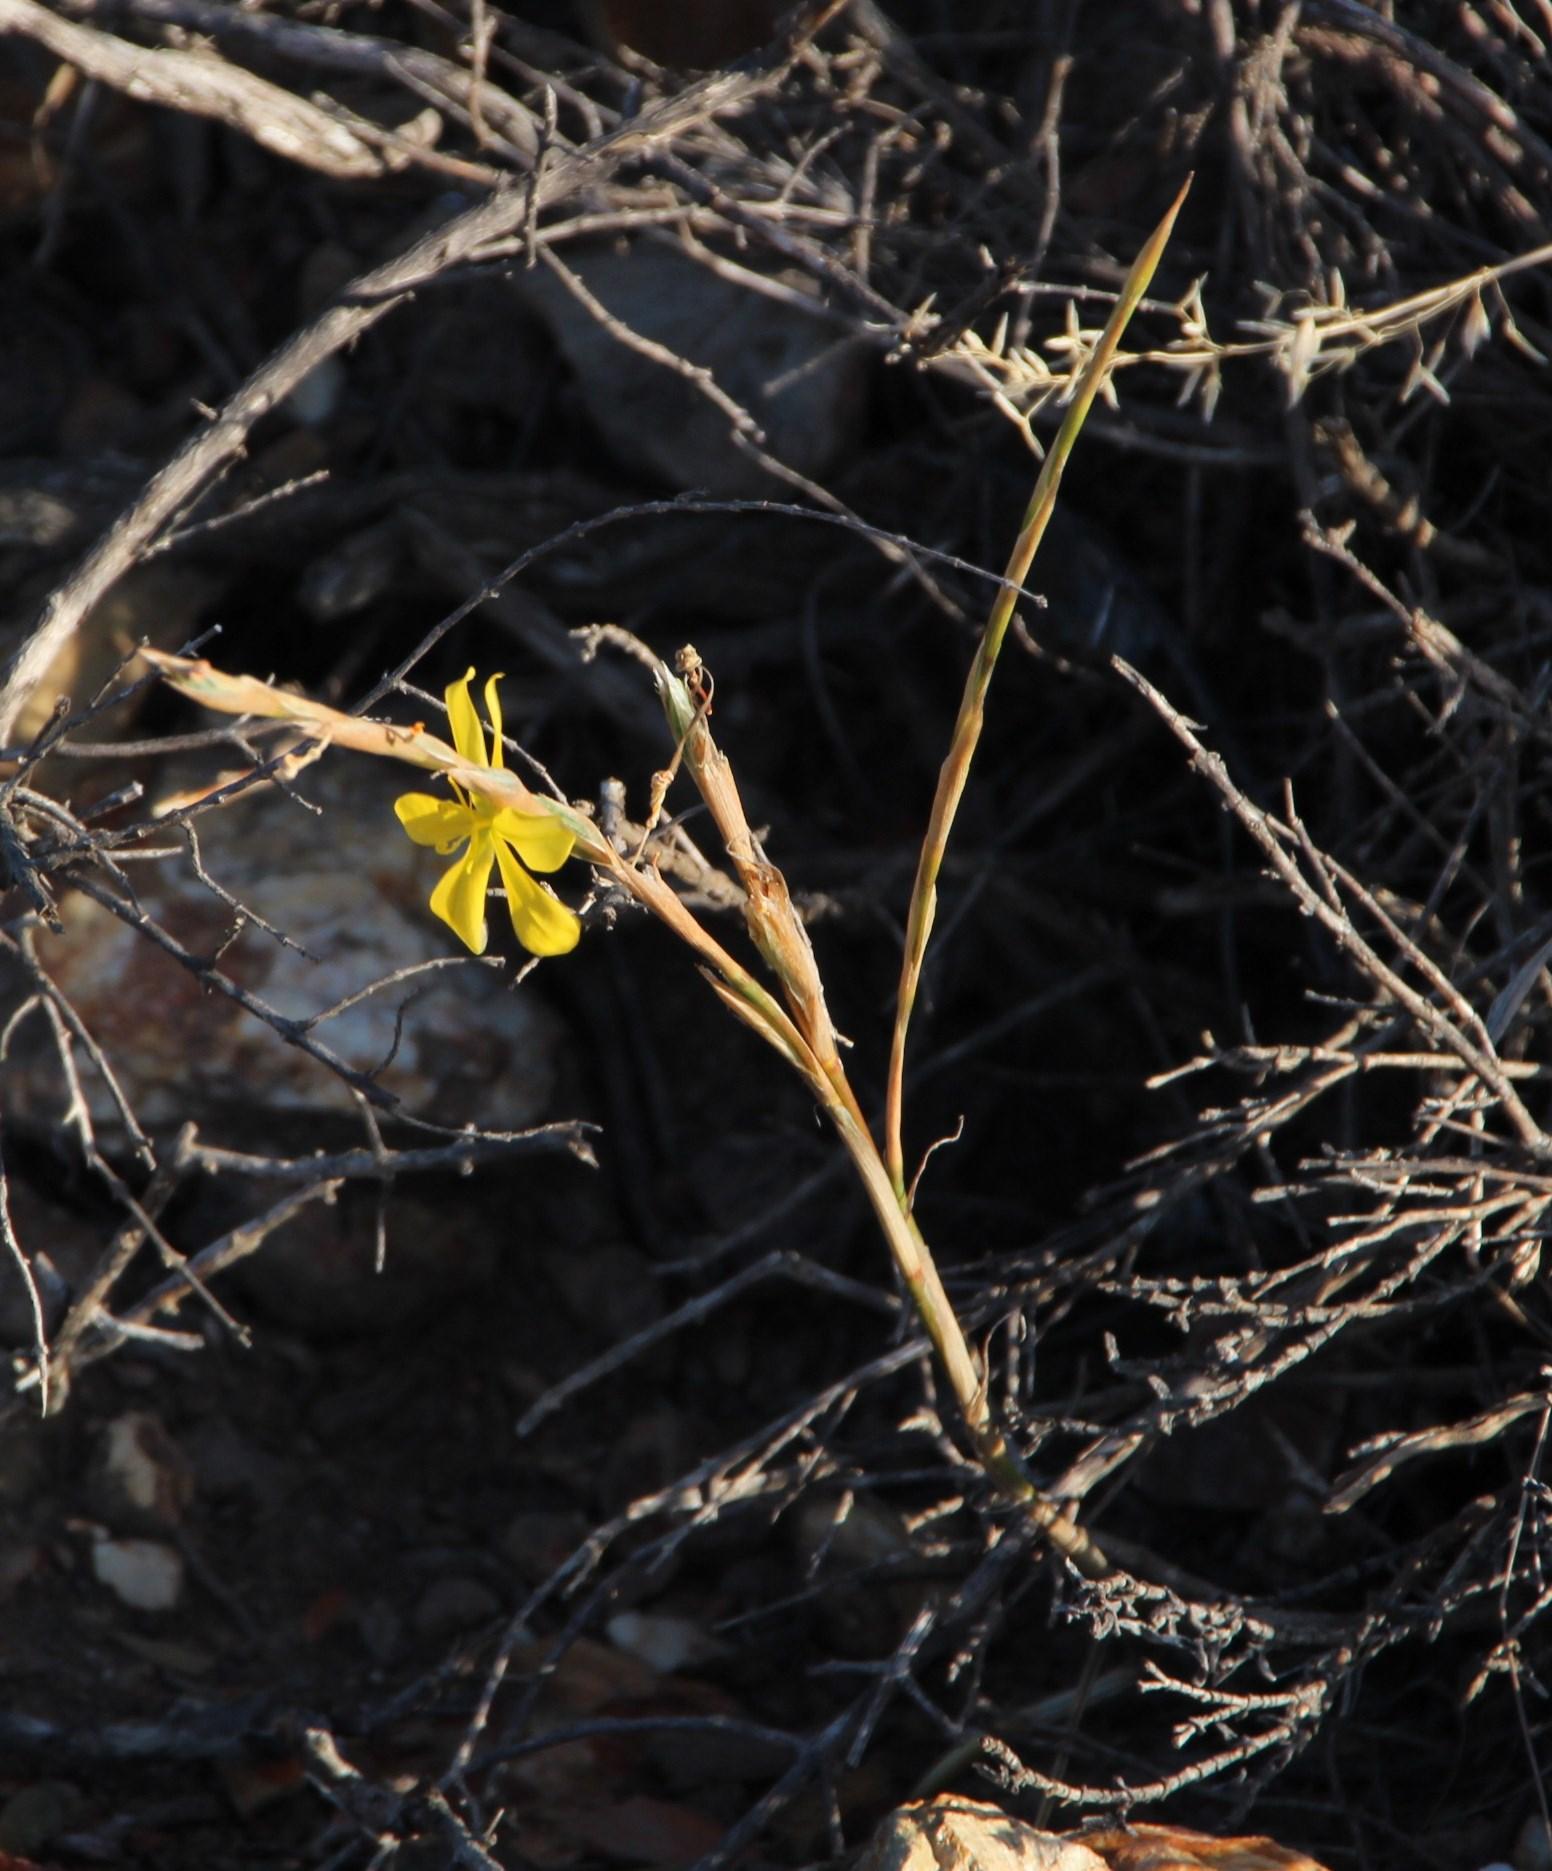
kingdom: Plantae
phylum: Tracheophyta
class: Liliopsida
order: Asparagales
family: Iridaceae
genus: Moraea
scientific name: Moraea lewisiae
